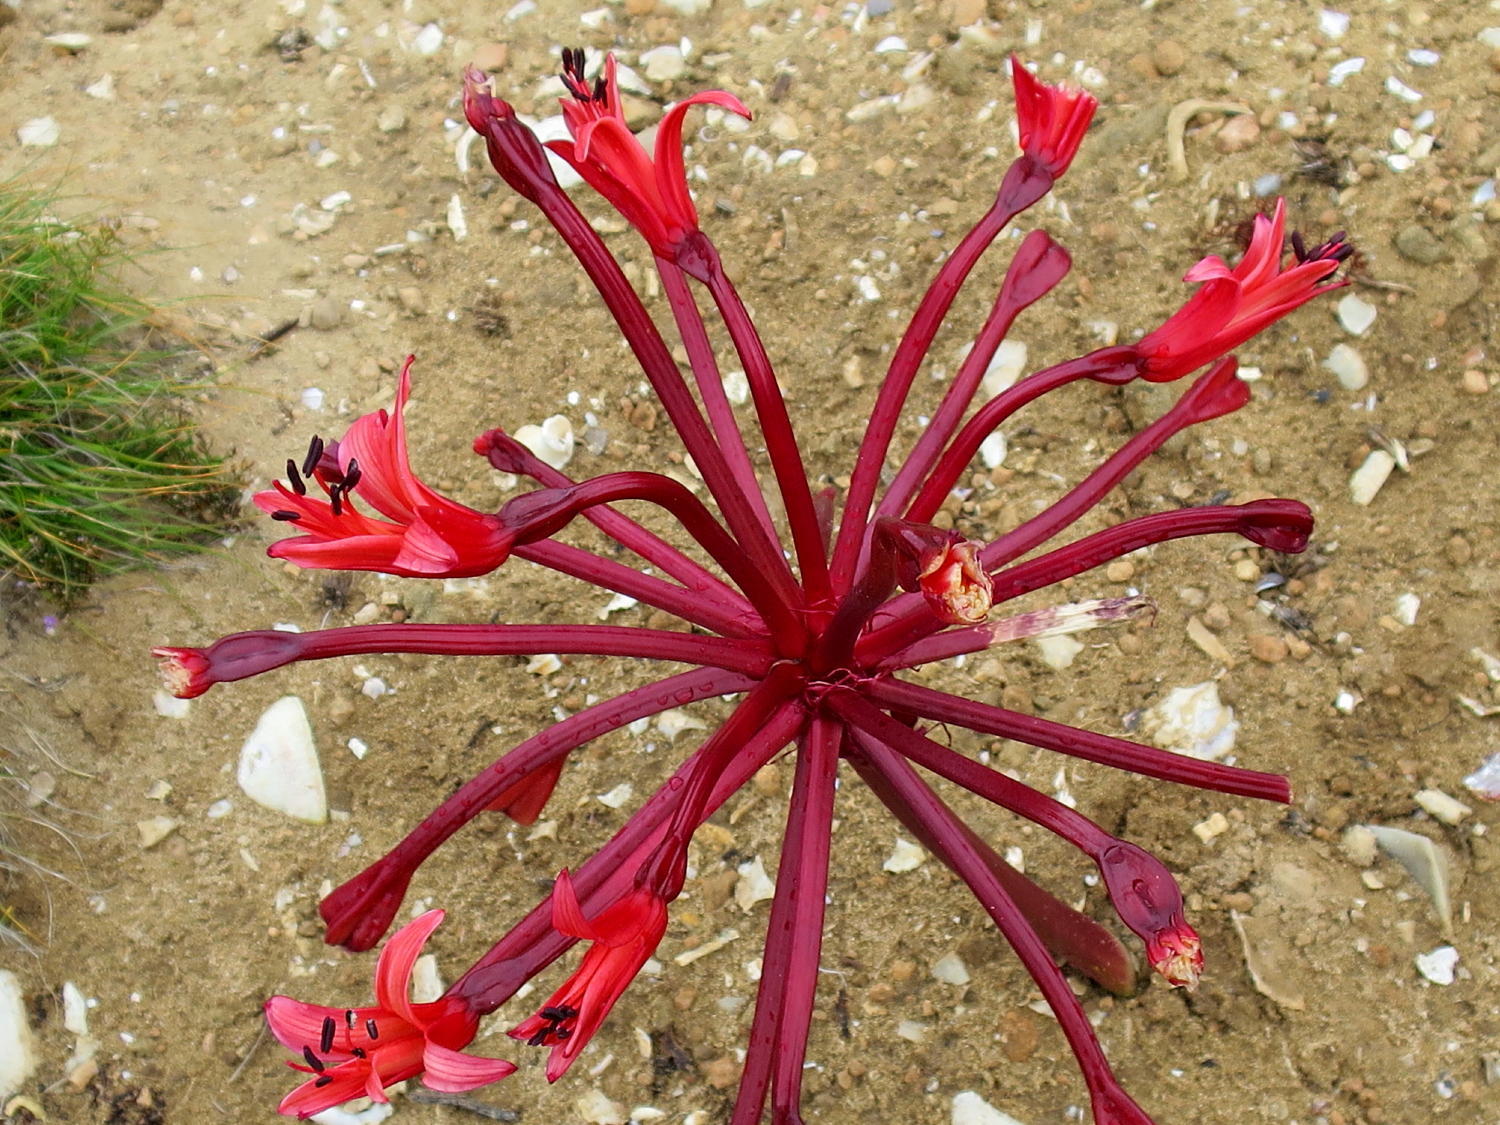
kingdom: Plantae
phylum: Tracheophyta
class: Liliopsida
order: Asparagales
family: Amaryllidaceae
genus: Brunsvigia
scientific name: Brunsvigia orientalis
